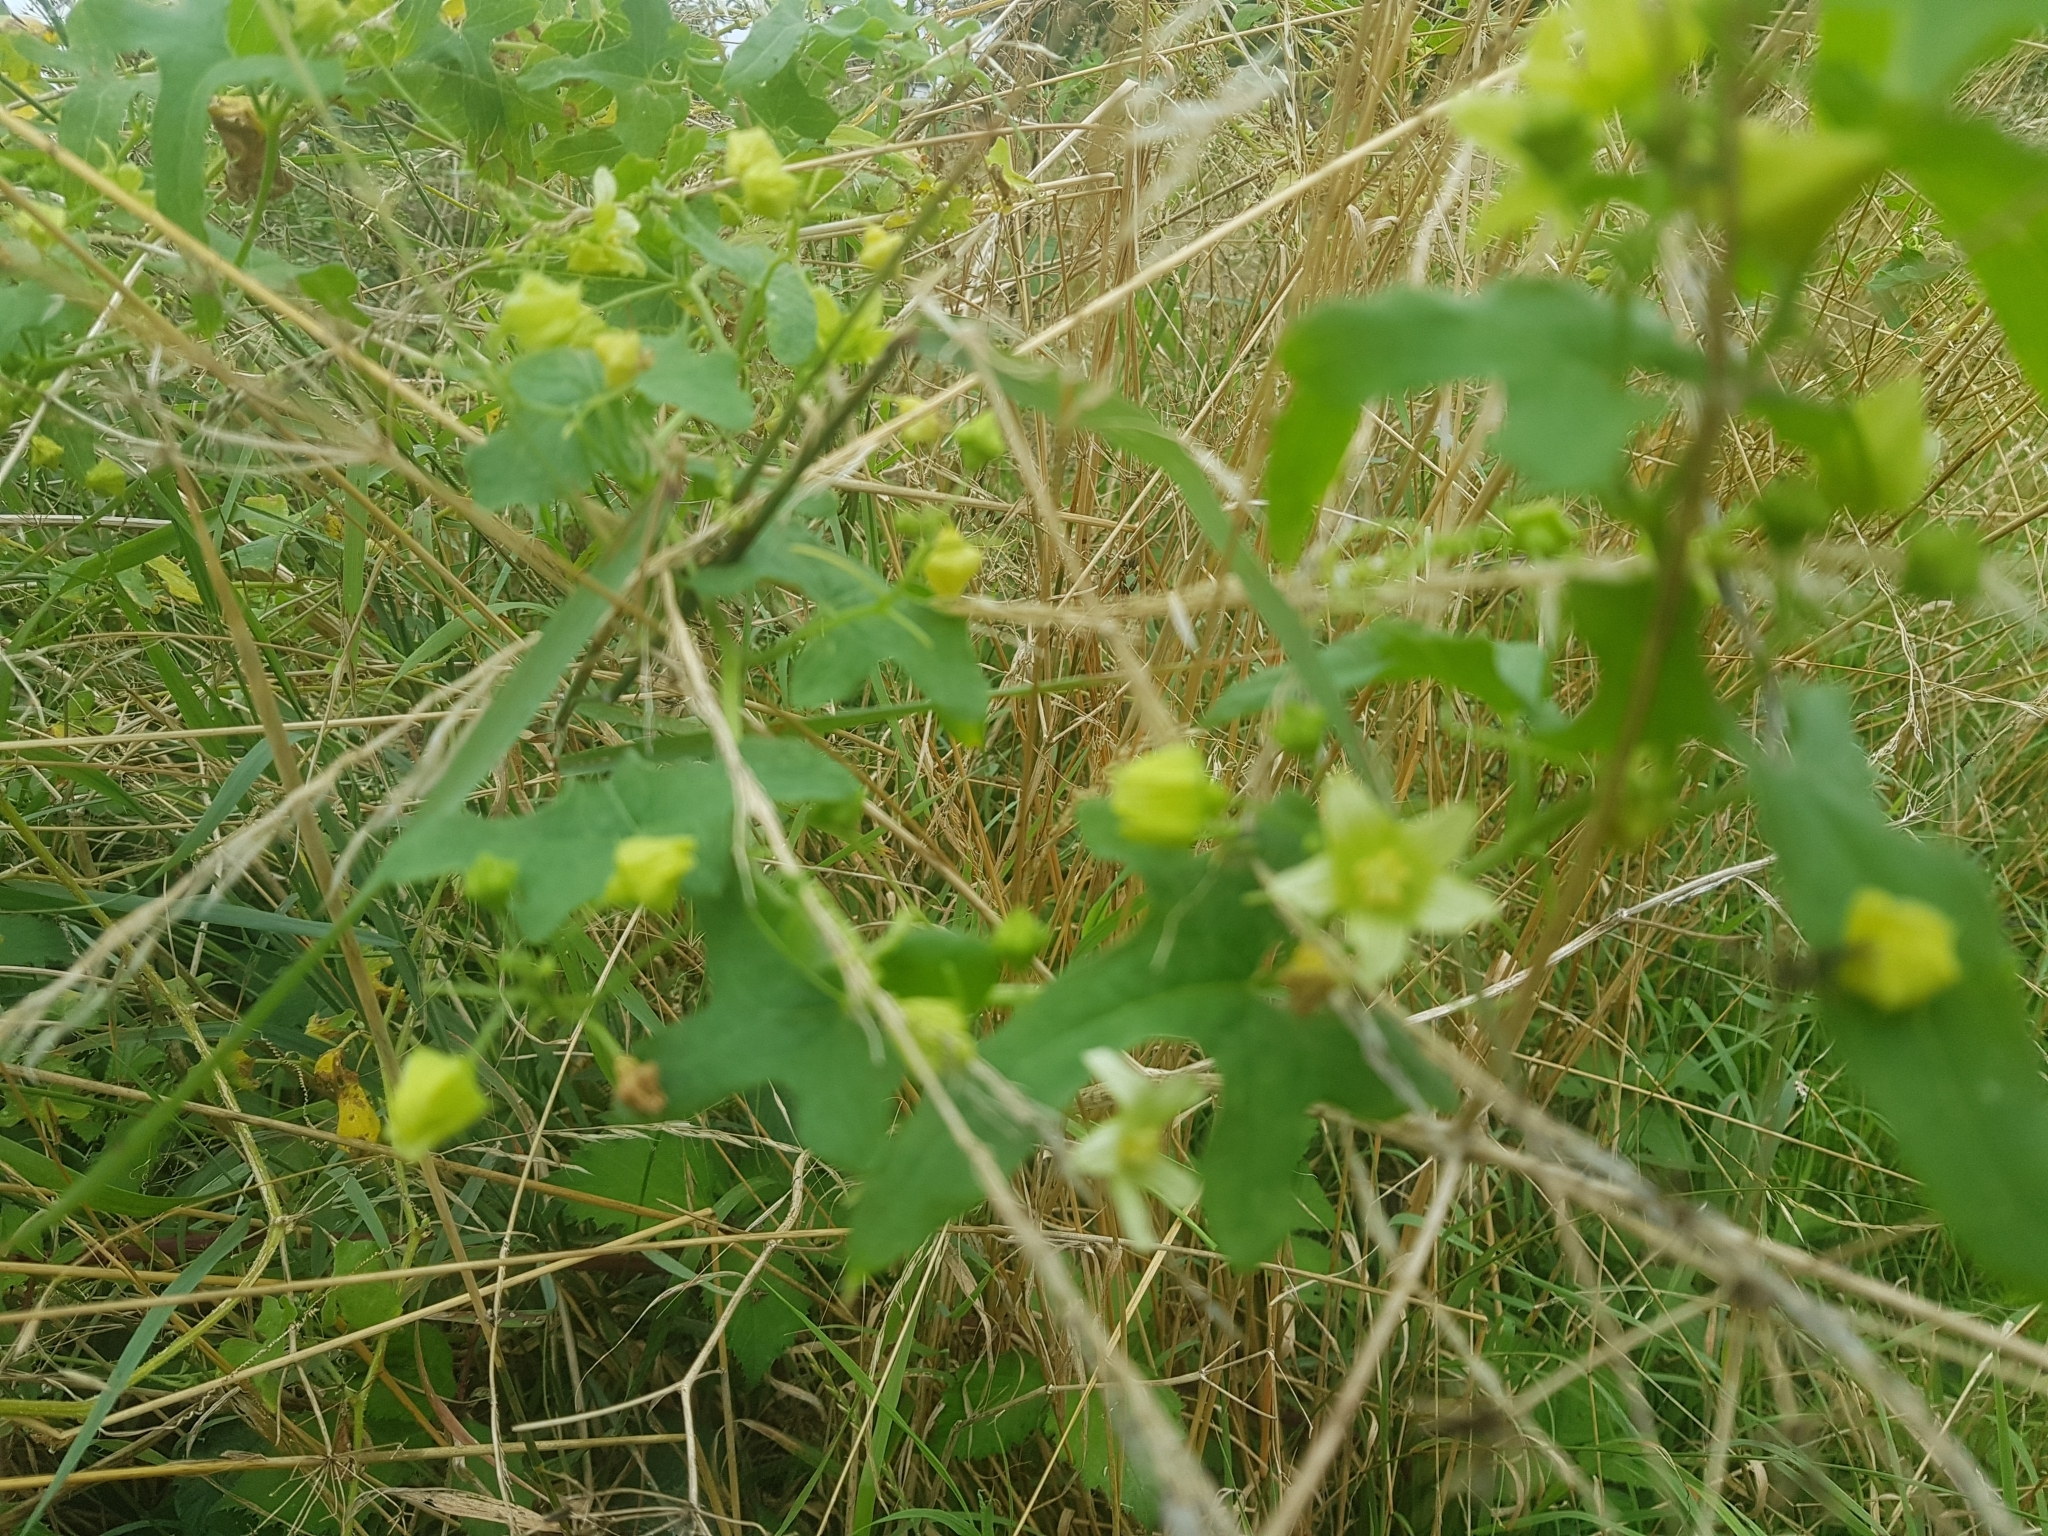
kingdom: Plantae
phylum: Tracheophyta
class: Magnoliopsida
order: Cucurbitales
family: Cucurbitaceae
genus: Bryonia
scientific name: Bryonia cretica
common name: Cretan bryony
